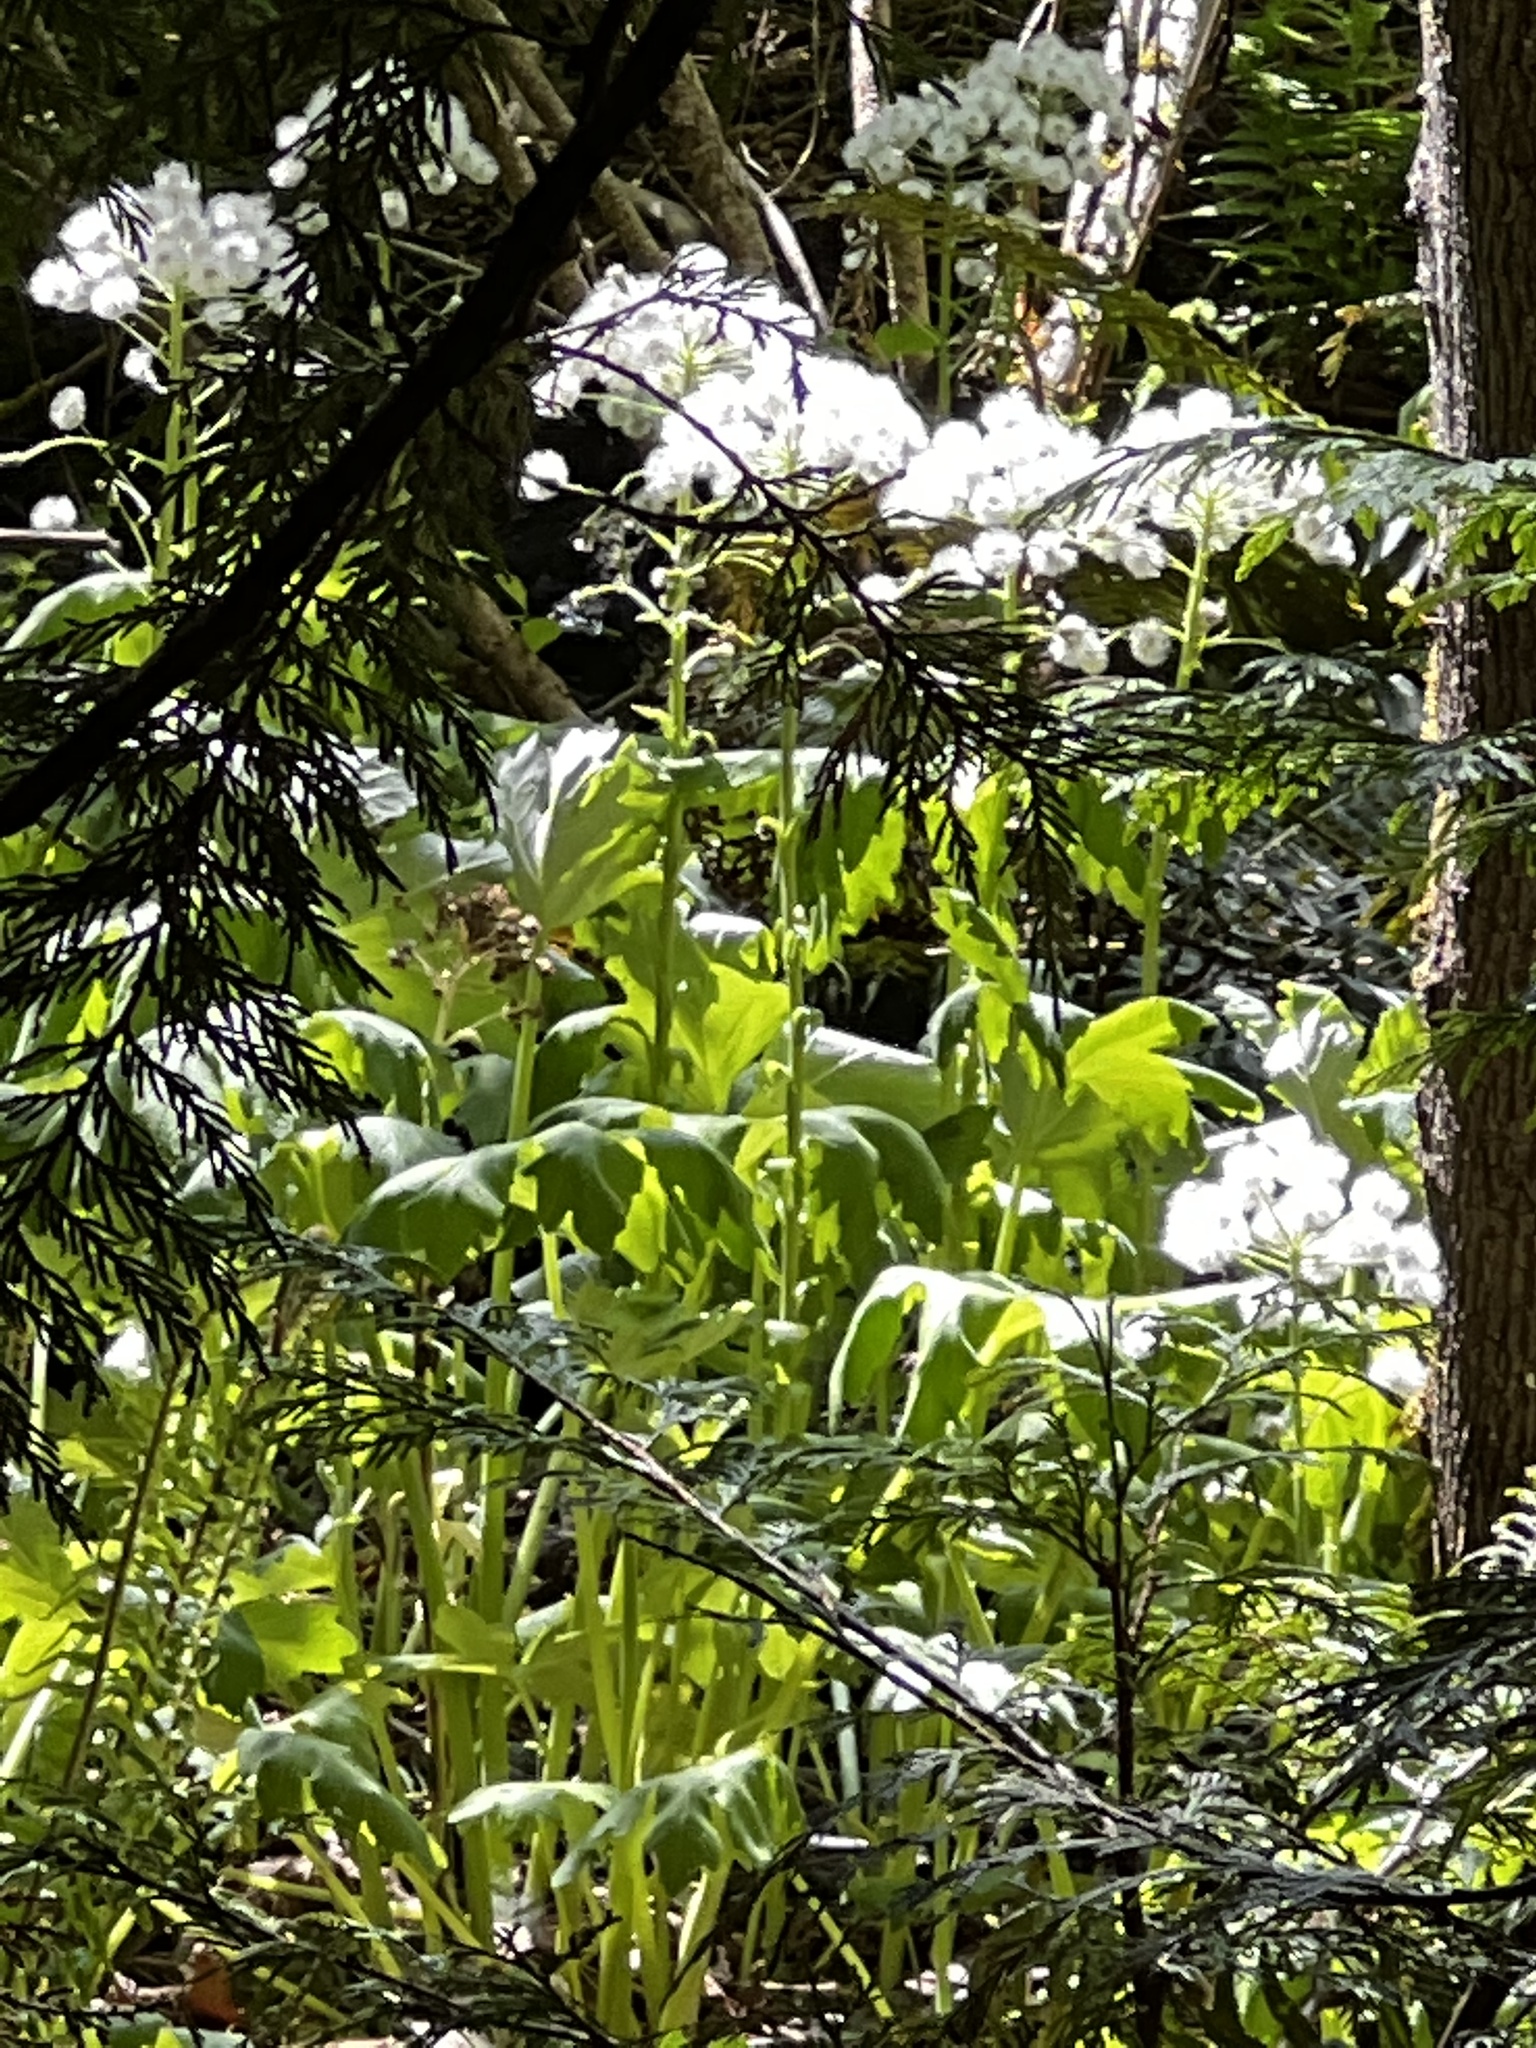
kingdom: Plantae
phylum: Tracheophyta
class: Magnoliopsida
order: Asterales
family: Asteraceae
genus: Petasites
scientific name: Petasites frigidus
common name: Arctic butterbur
